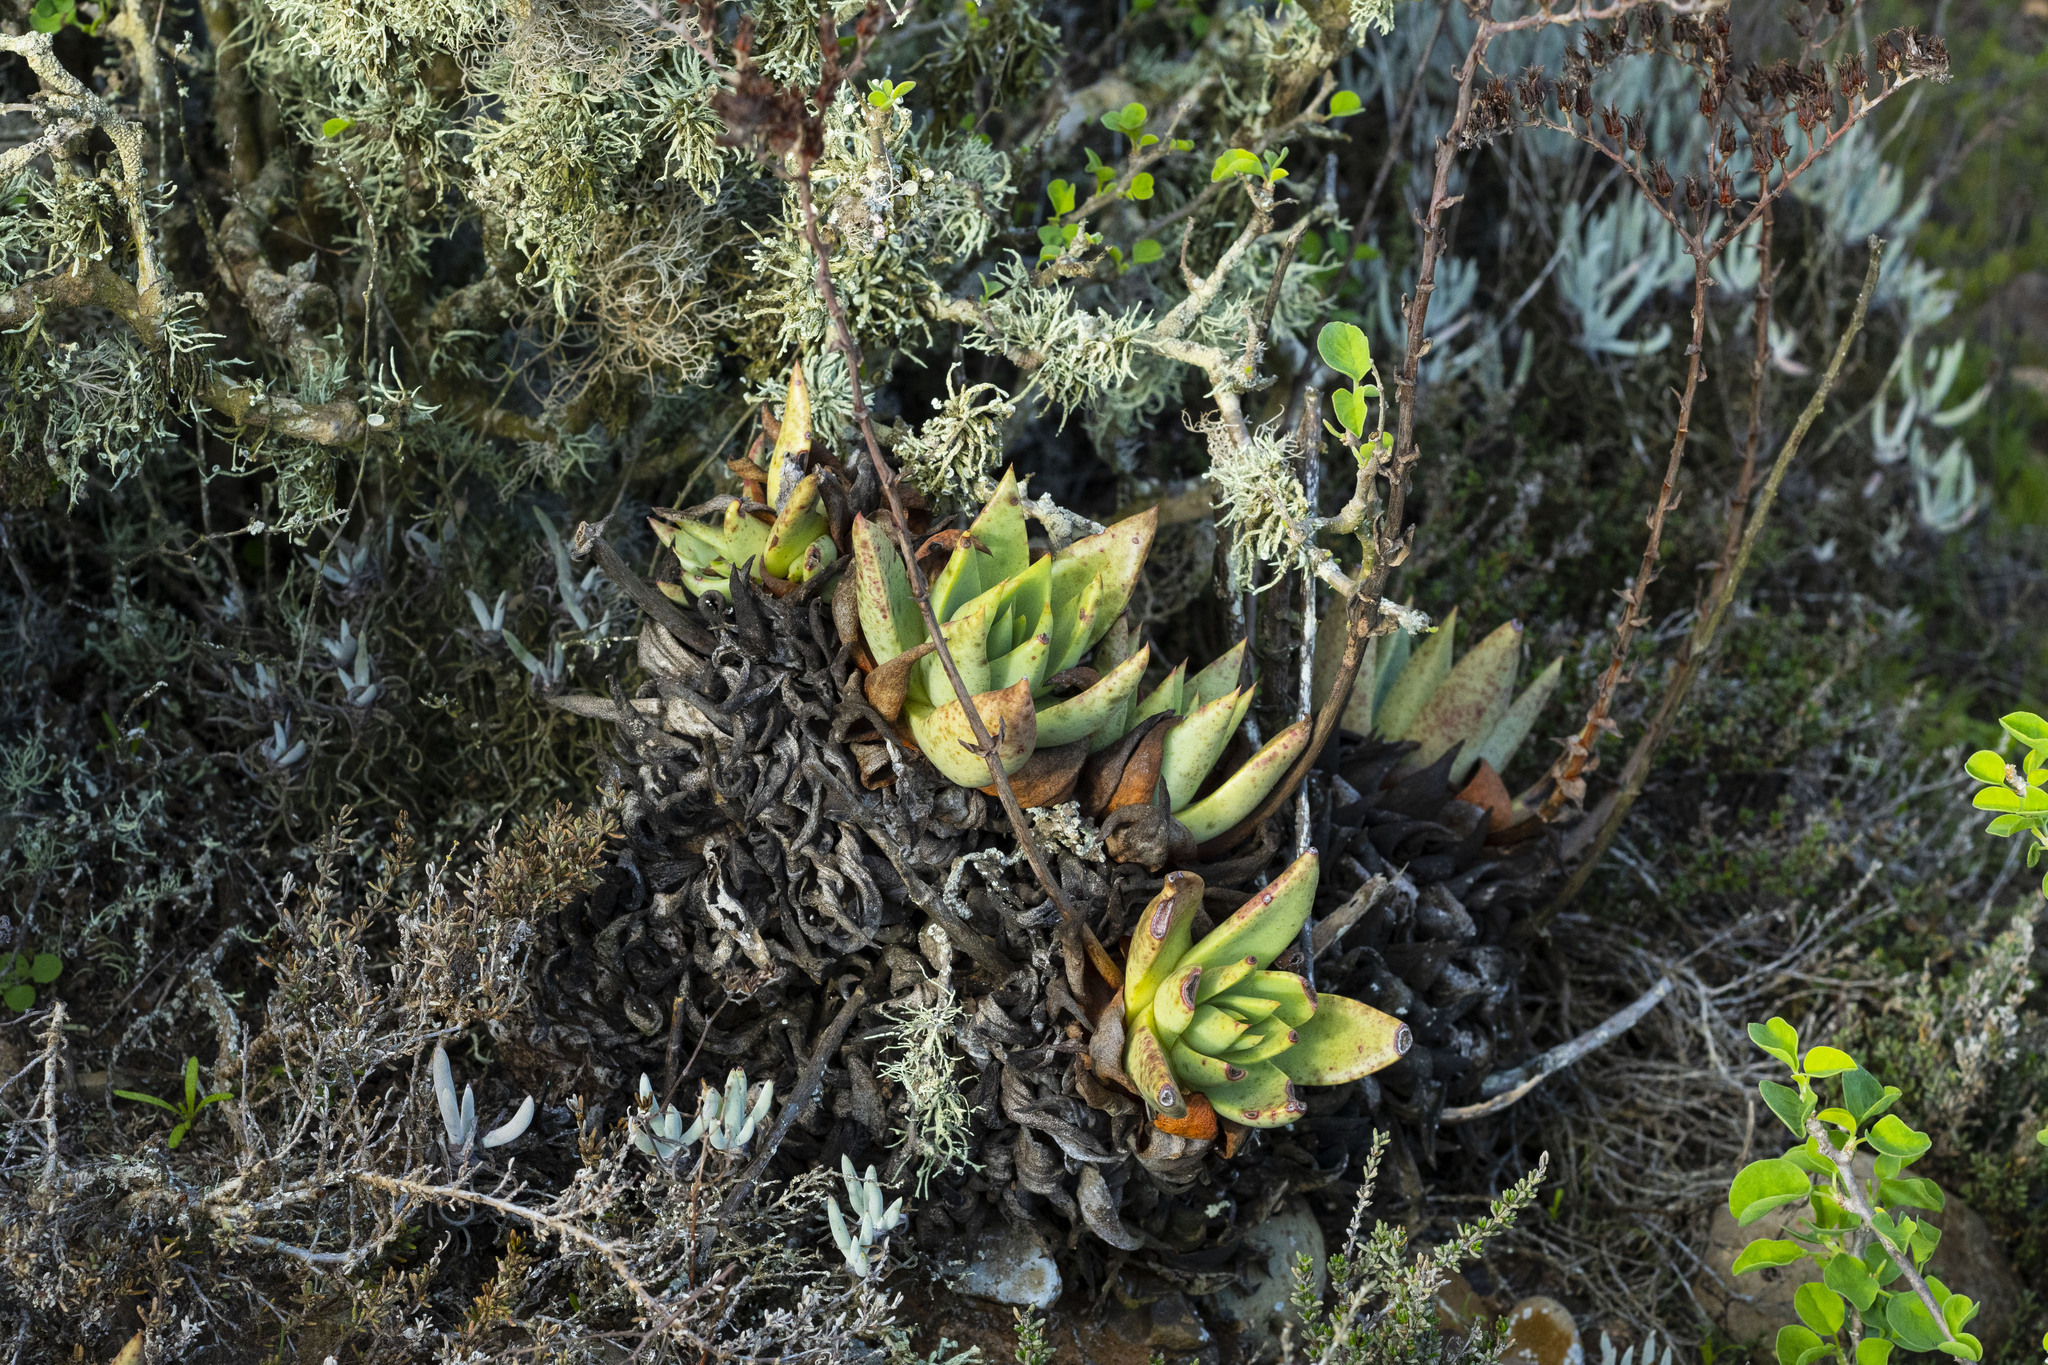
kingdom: Plantae
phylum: Tracheophyta
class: Magnoliopsida
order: Saxifragales
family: Crassulaceae
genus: Dudleya
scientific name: Dudleya
